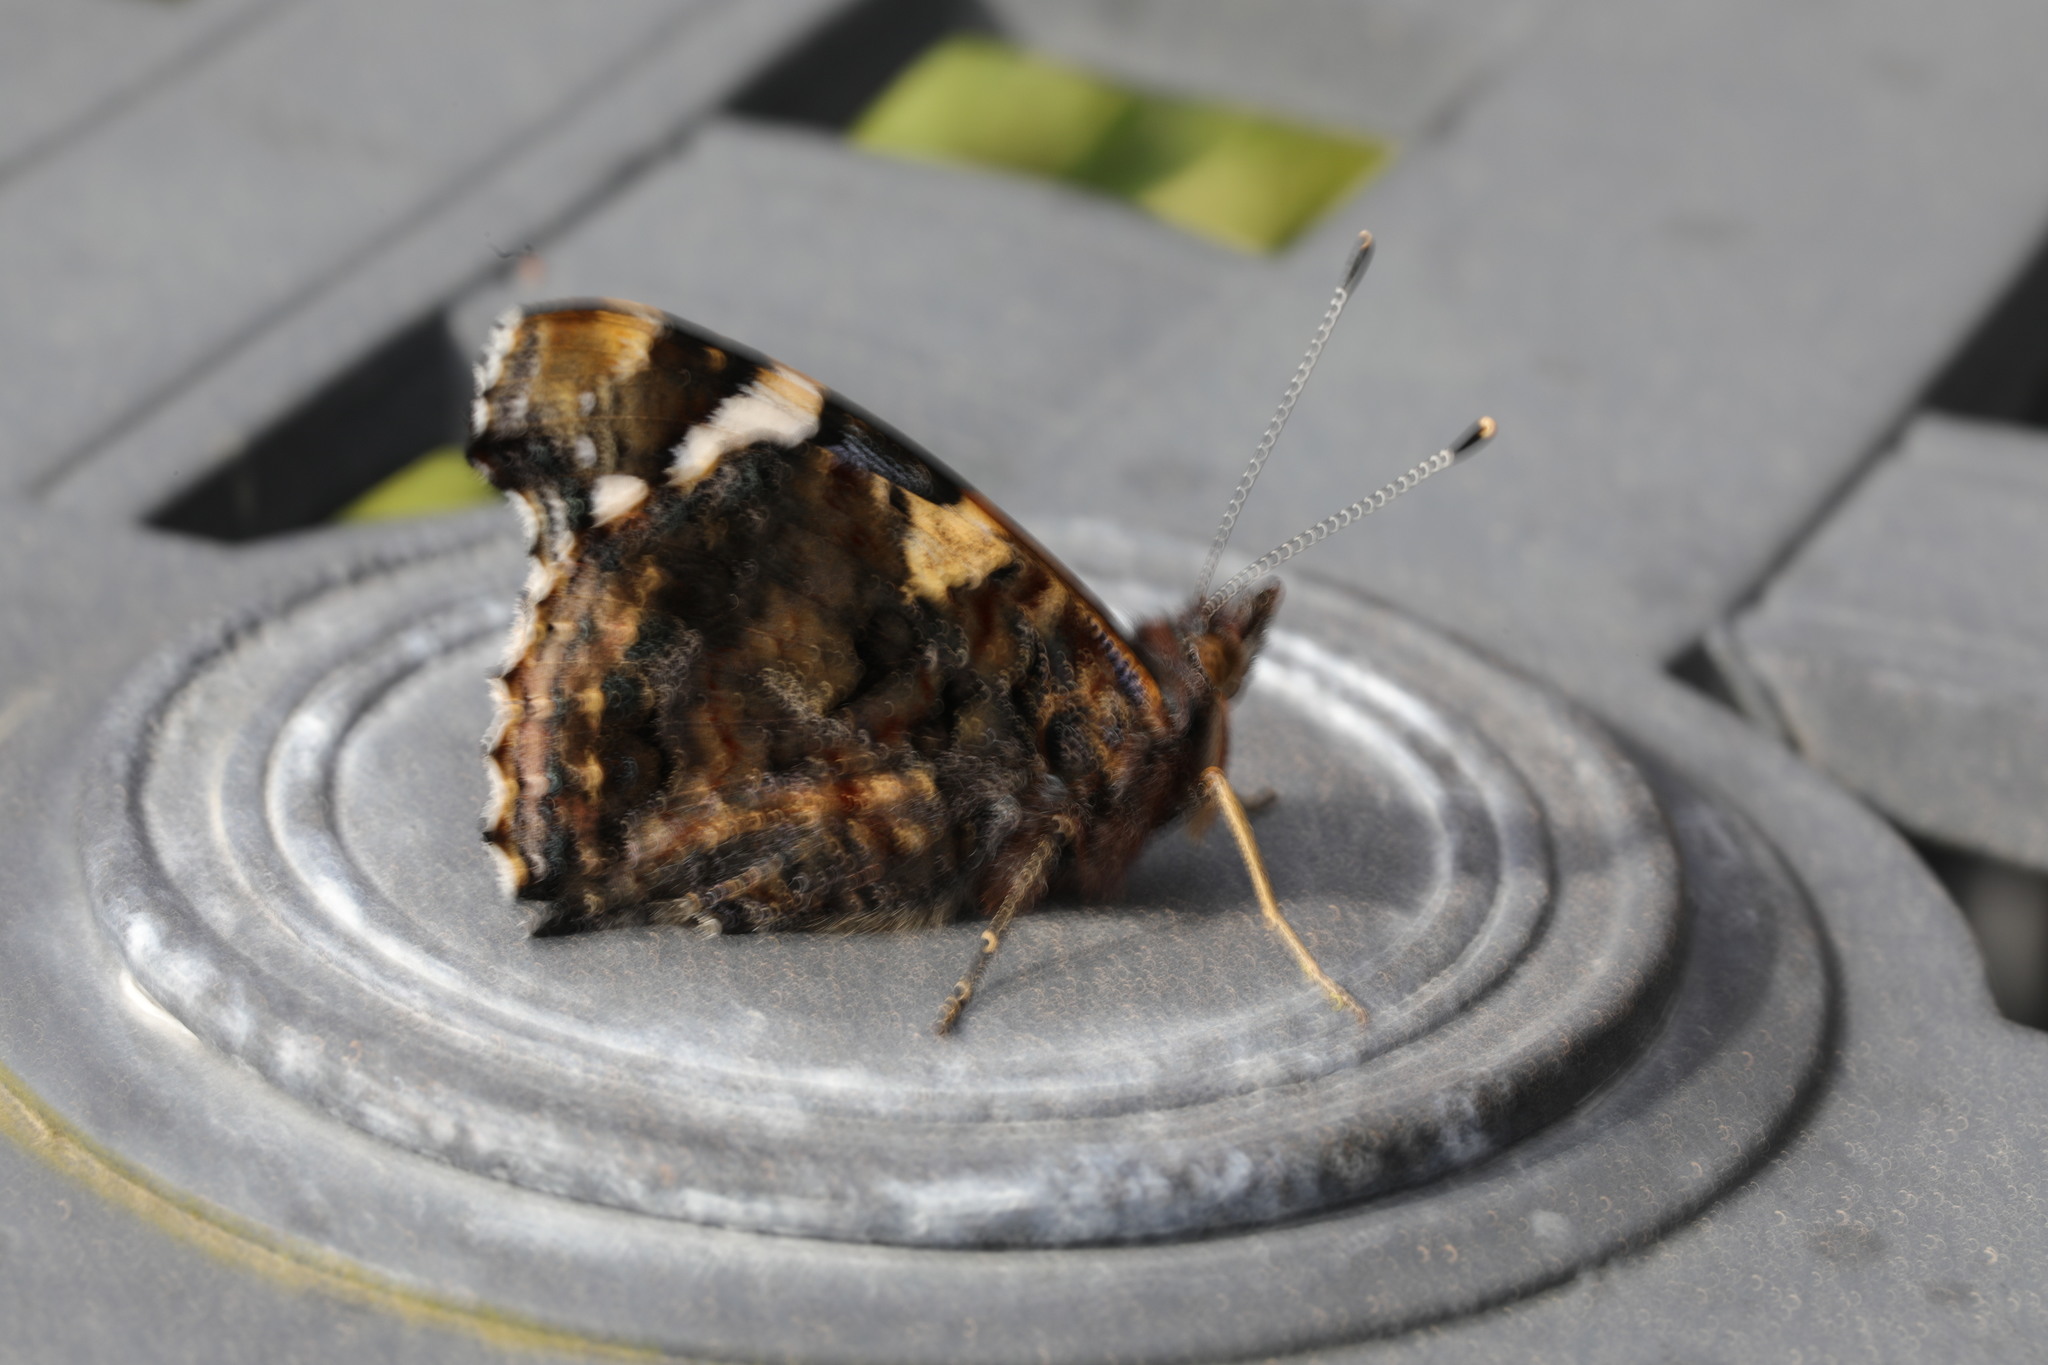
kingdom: Animalia
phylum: Arthropoda
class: Insecta
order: Lepidoptera
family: Nymphalidae
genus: Vanessa
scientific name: Vanessa atalanta
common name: Red admiral
